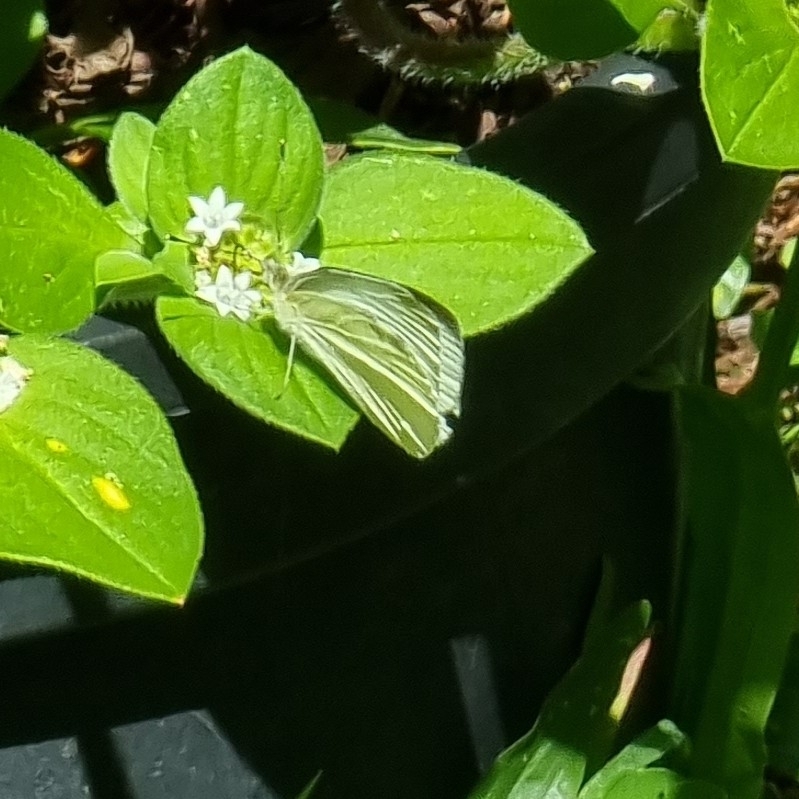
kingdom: Animalia
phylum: Arthropoda
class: Insecta
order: Lepidoptera
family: Pieridae
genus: Pieris
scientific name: Pieris rapae
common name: Small white
